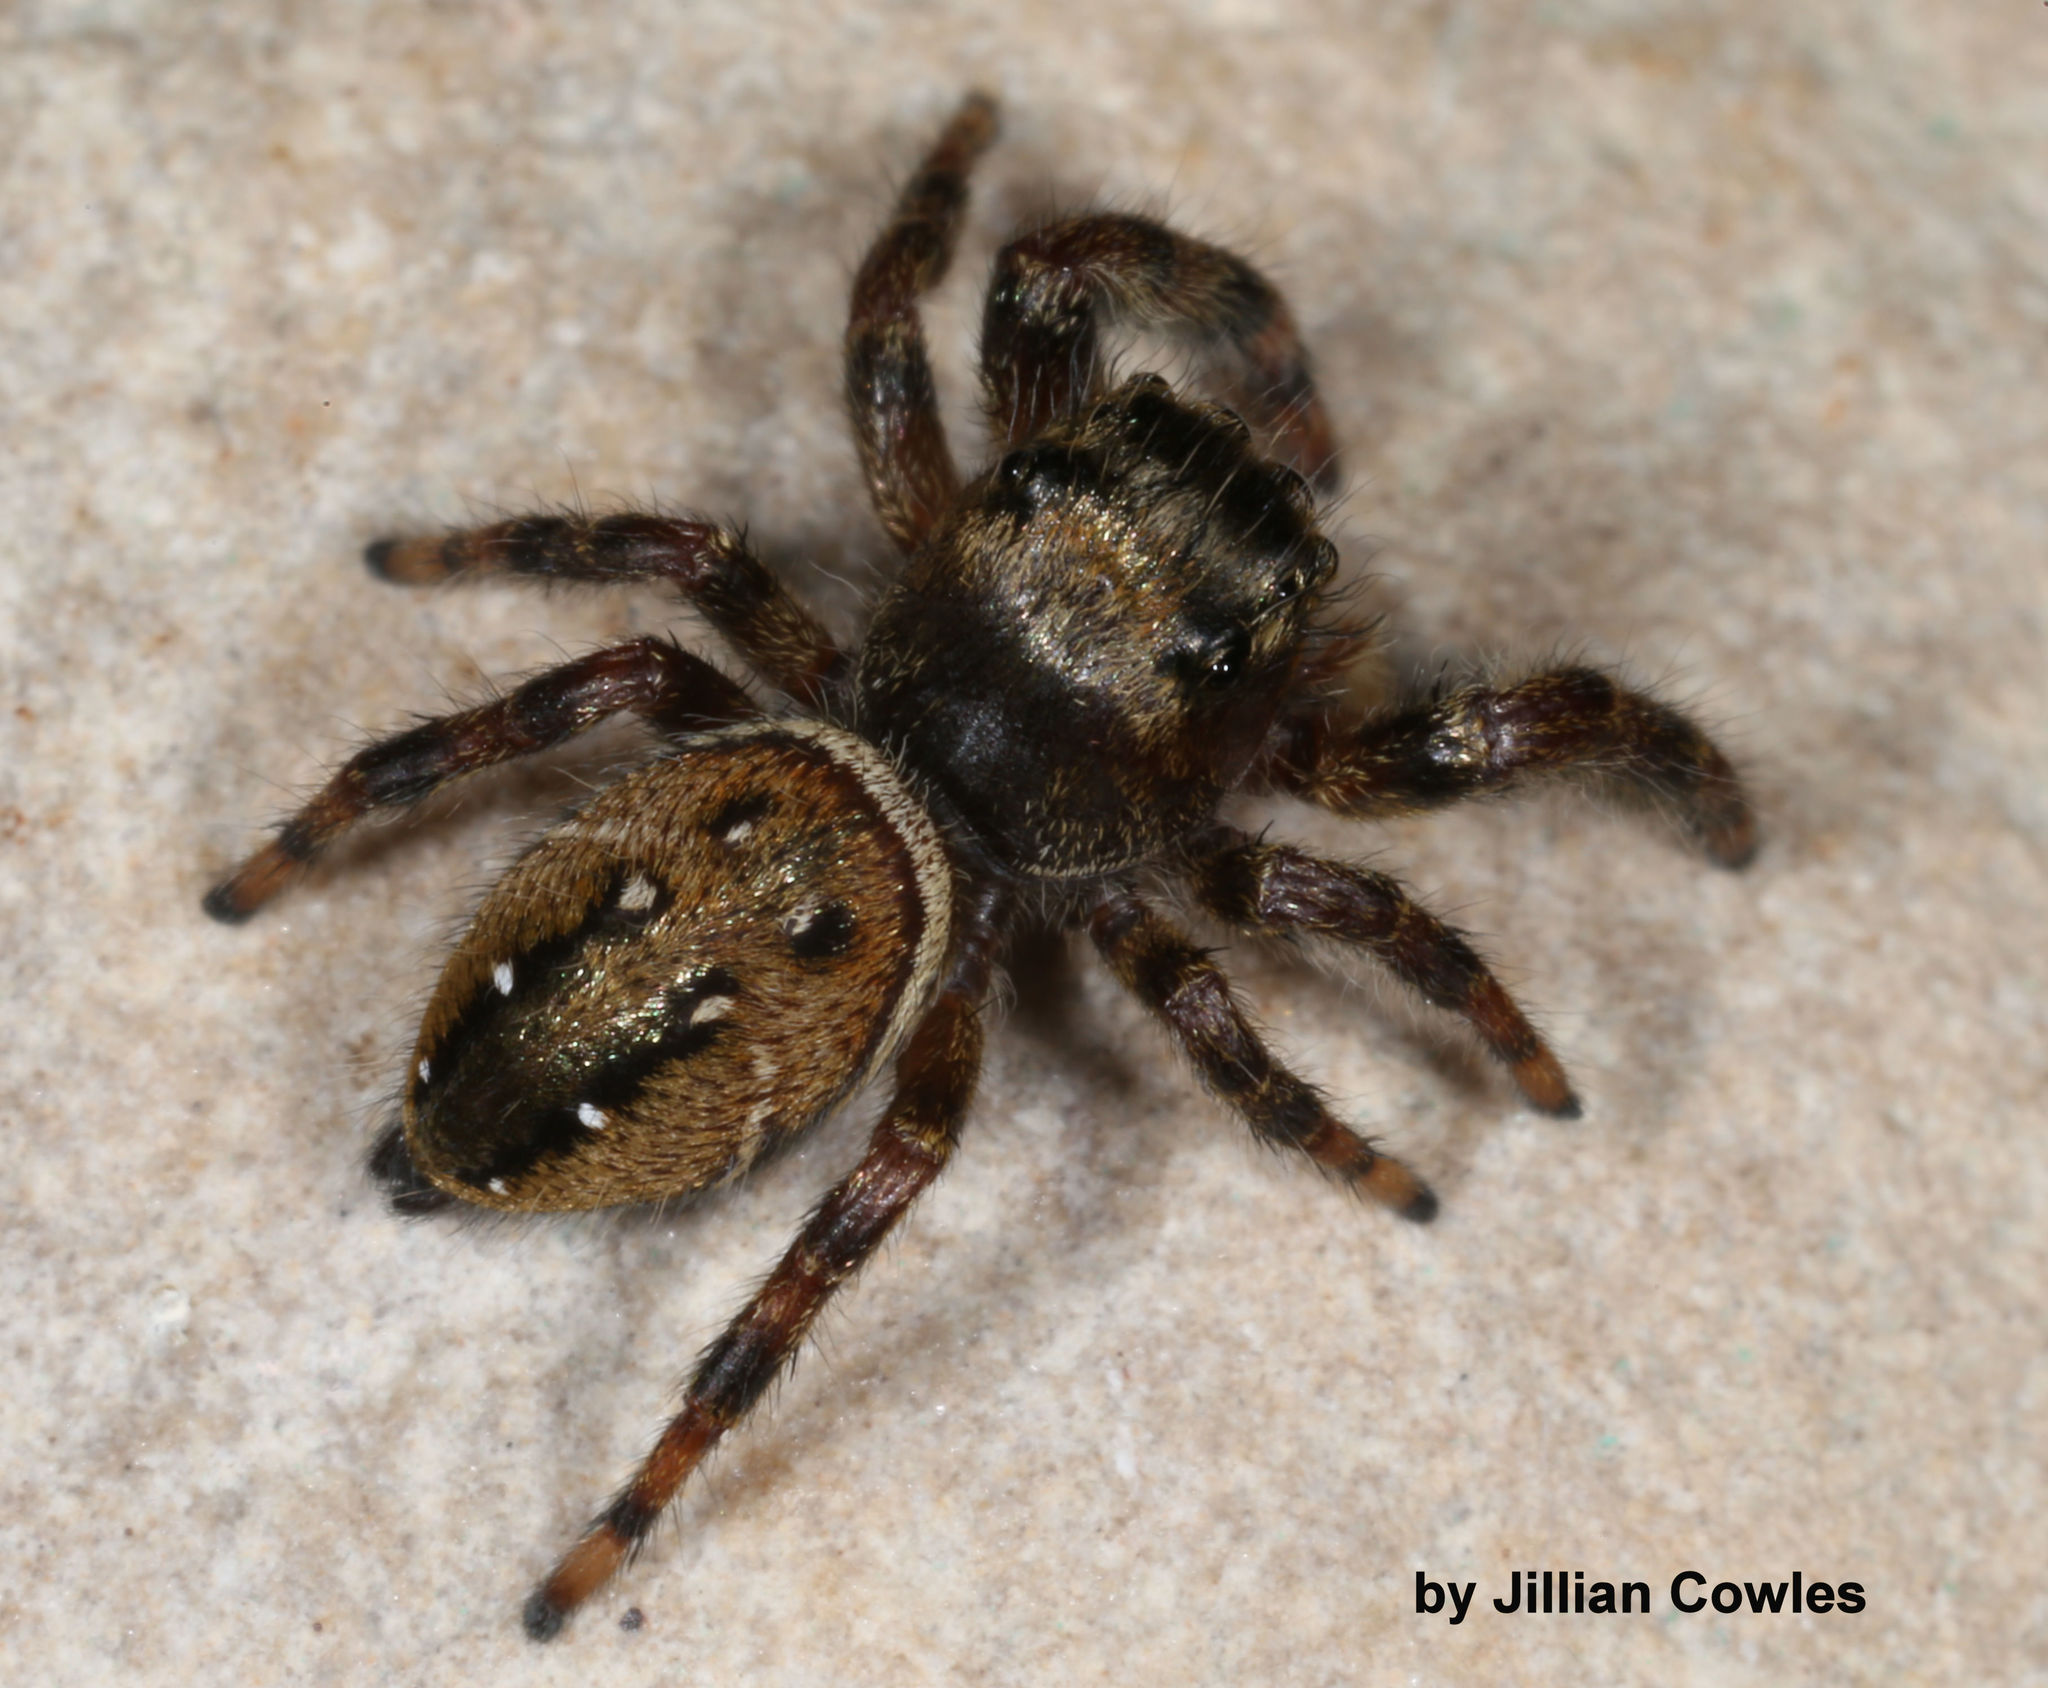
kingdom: Animalia
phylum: Arthropoda
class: Arachnida
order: Araneae
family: Salticidae
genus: Phidippus
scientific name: Phidippus clarus
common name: Brilliant jumping spider
